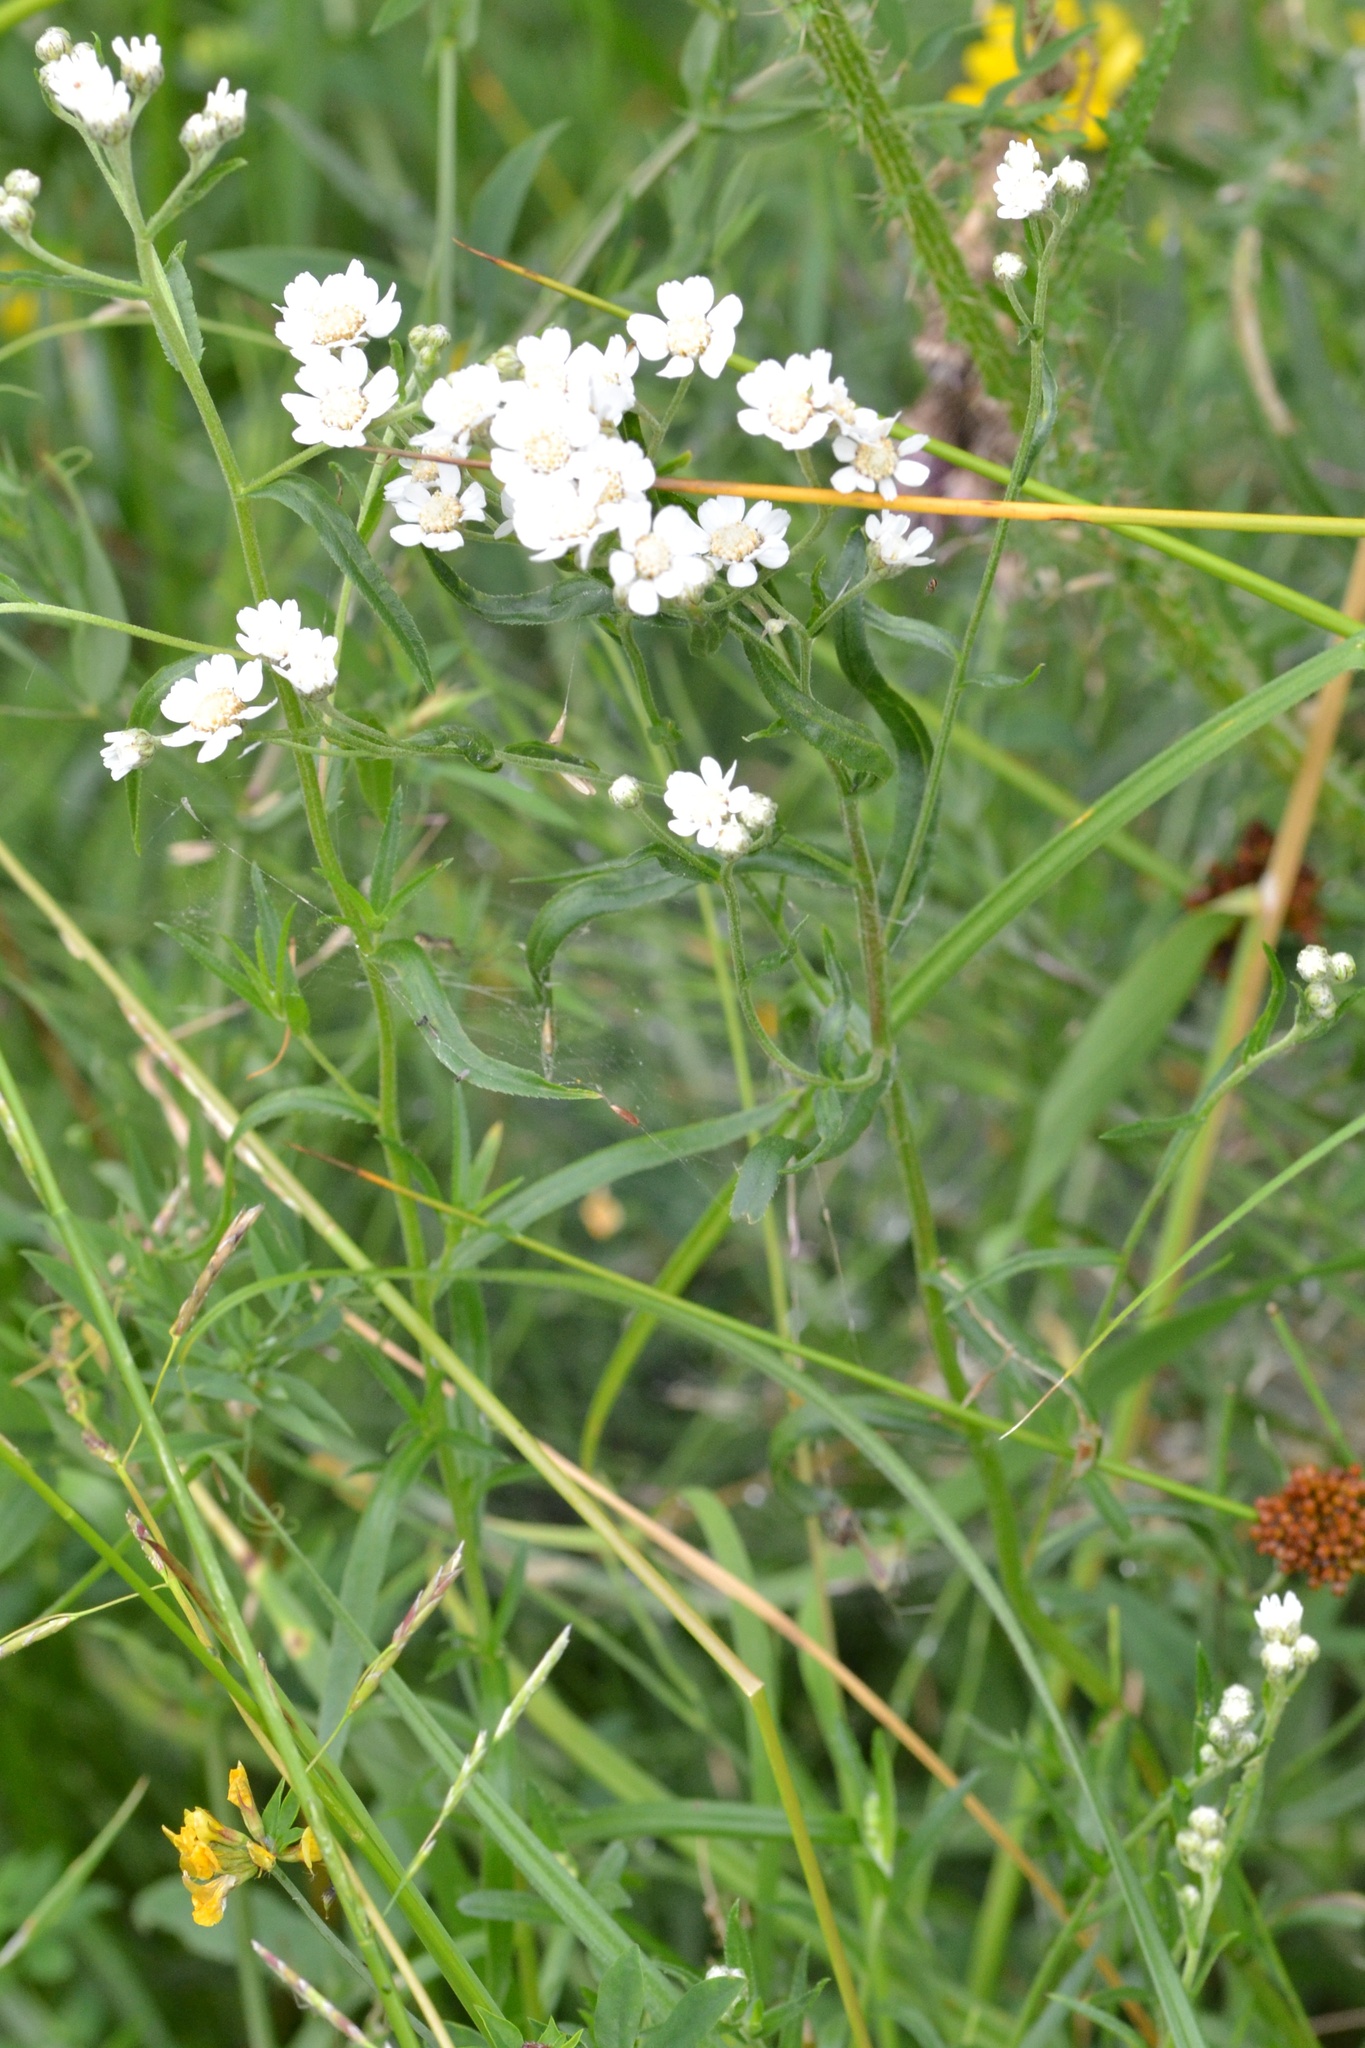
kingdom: Plantae
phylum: Tracheophyta
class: Magnoliopsida
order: Asterales
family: Asteraceae
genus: Achillea
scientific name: Achillea ptarmica
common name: Sneezeweed
